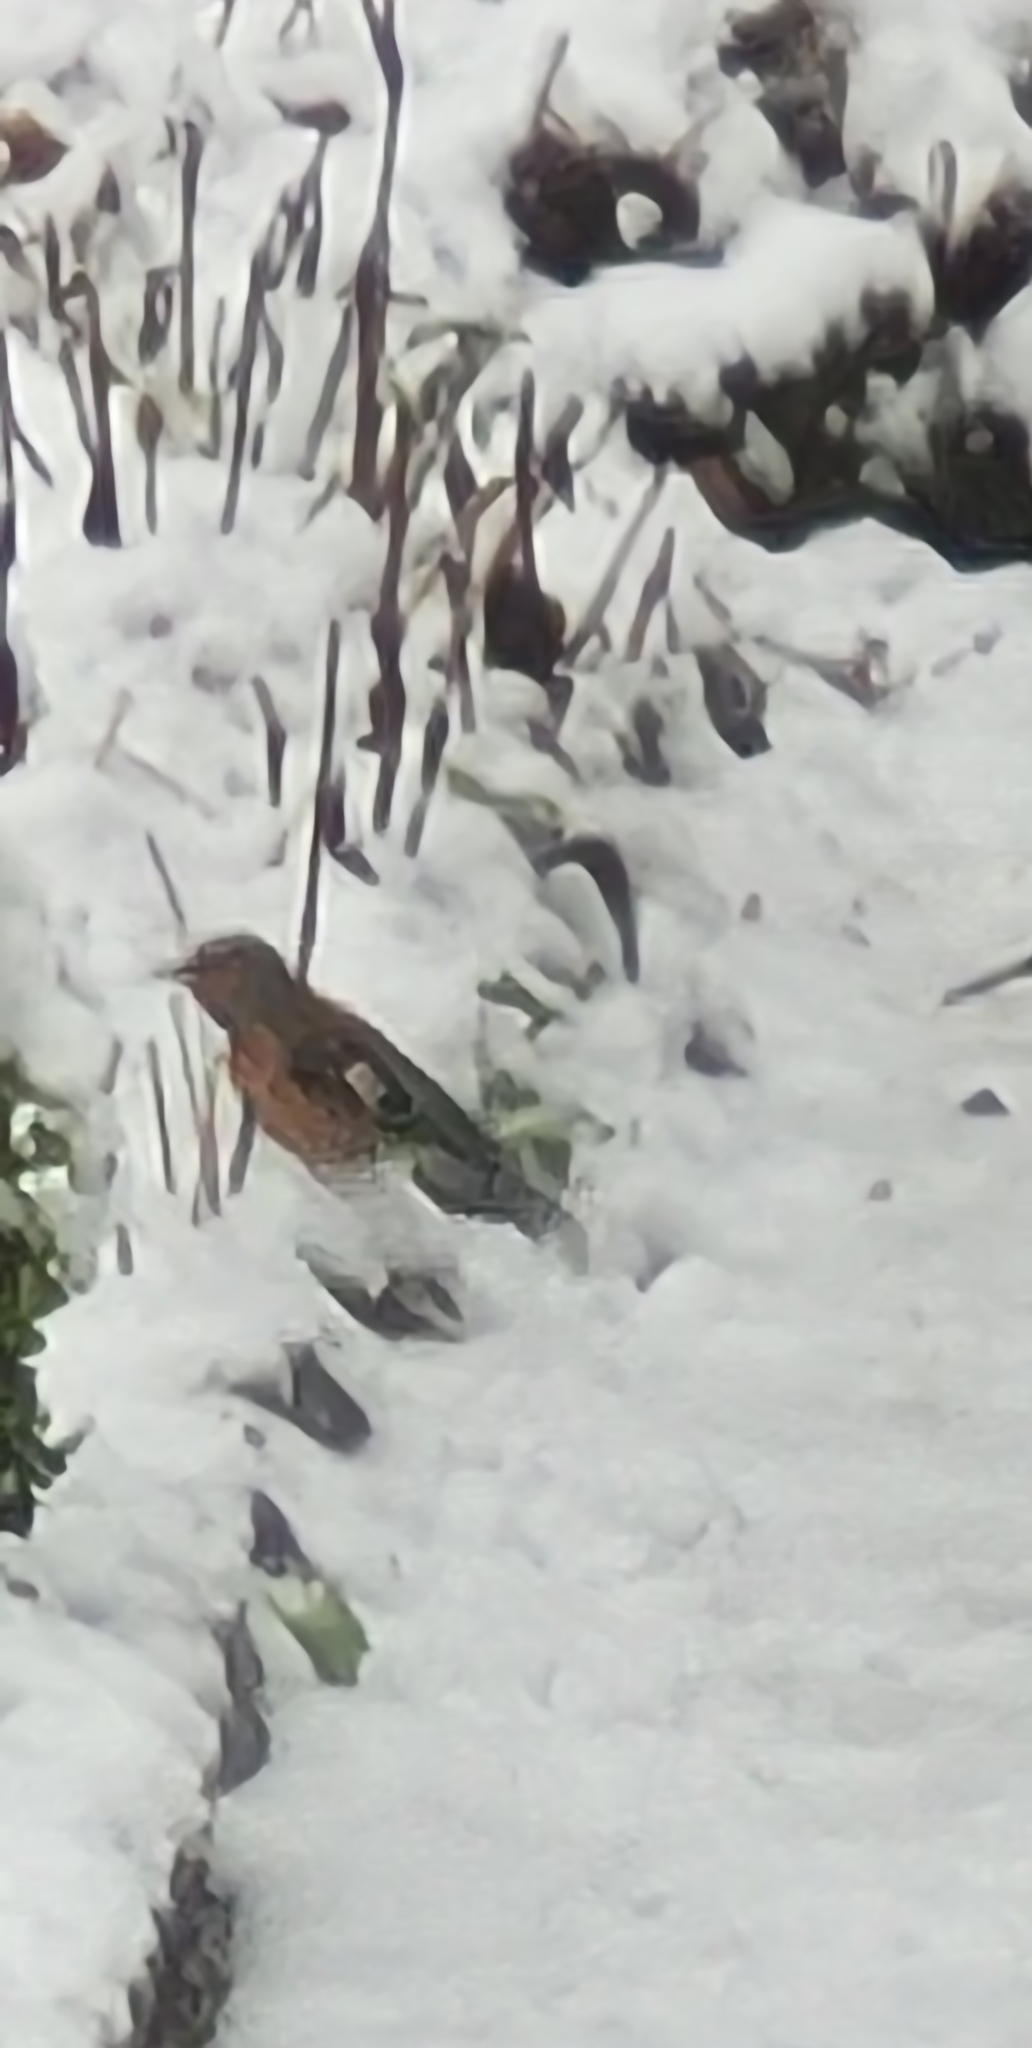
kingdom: Animalia
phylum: Chordata
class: Aves
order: Passeriformes
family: Fringillidae
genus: Fringilla
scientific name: Fringilla coelebs
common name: Common chaffinch
